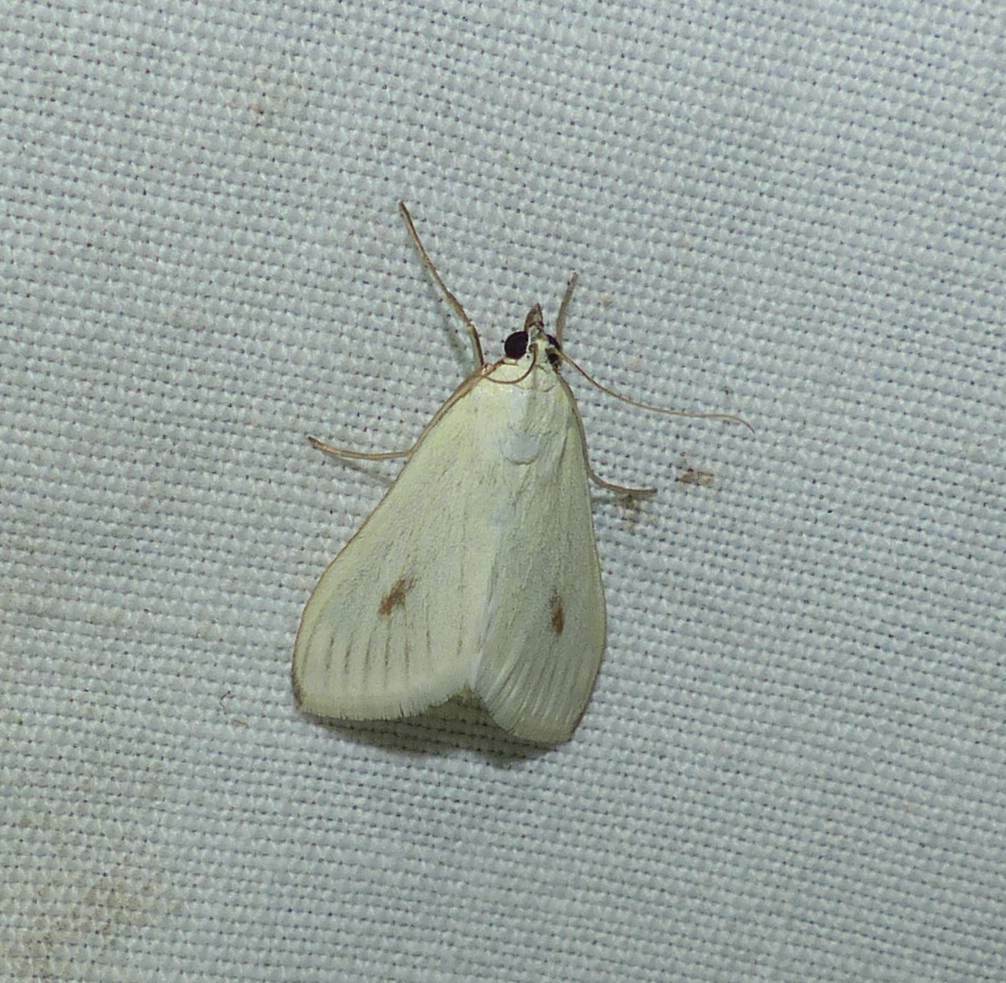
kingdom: Animalia
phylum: Arthropoda
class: Insecta
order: Lepidoptera
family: Crambidae
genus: Sitochroa
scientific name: Sitochroa palealis
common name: Greenish-yellow sitochroa moth
